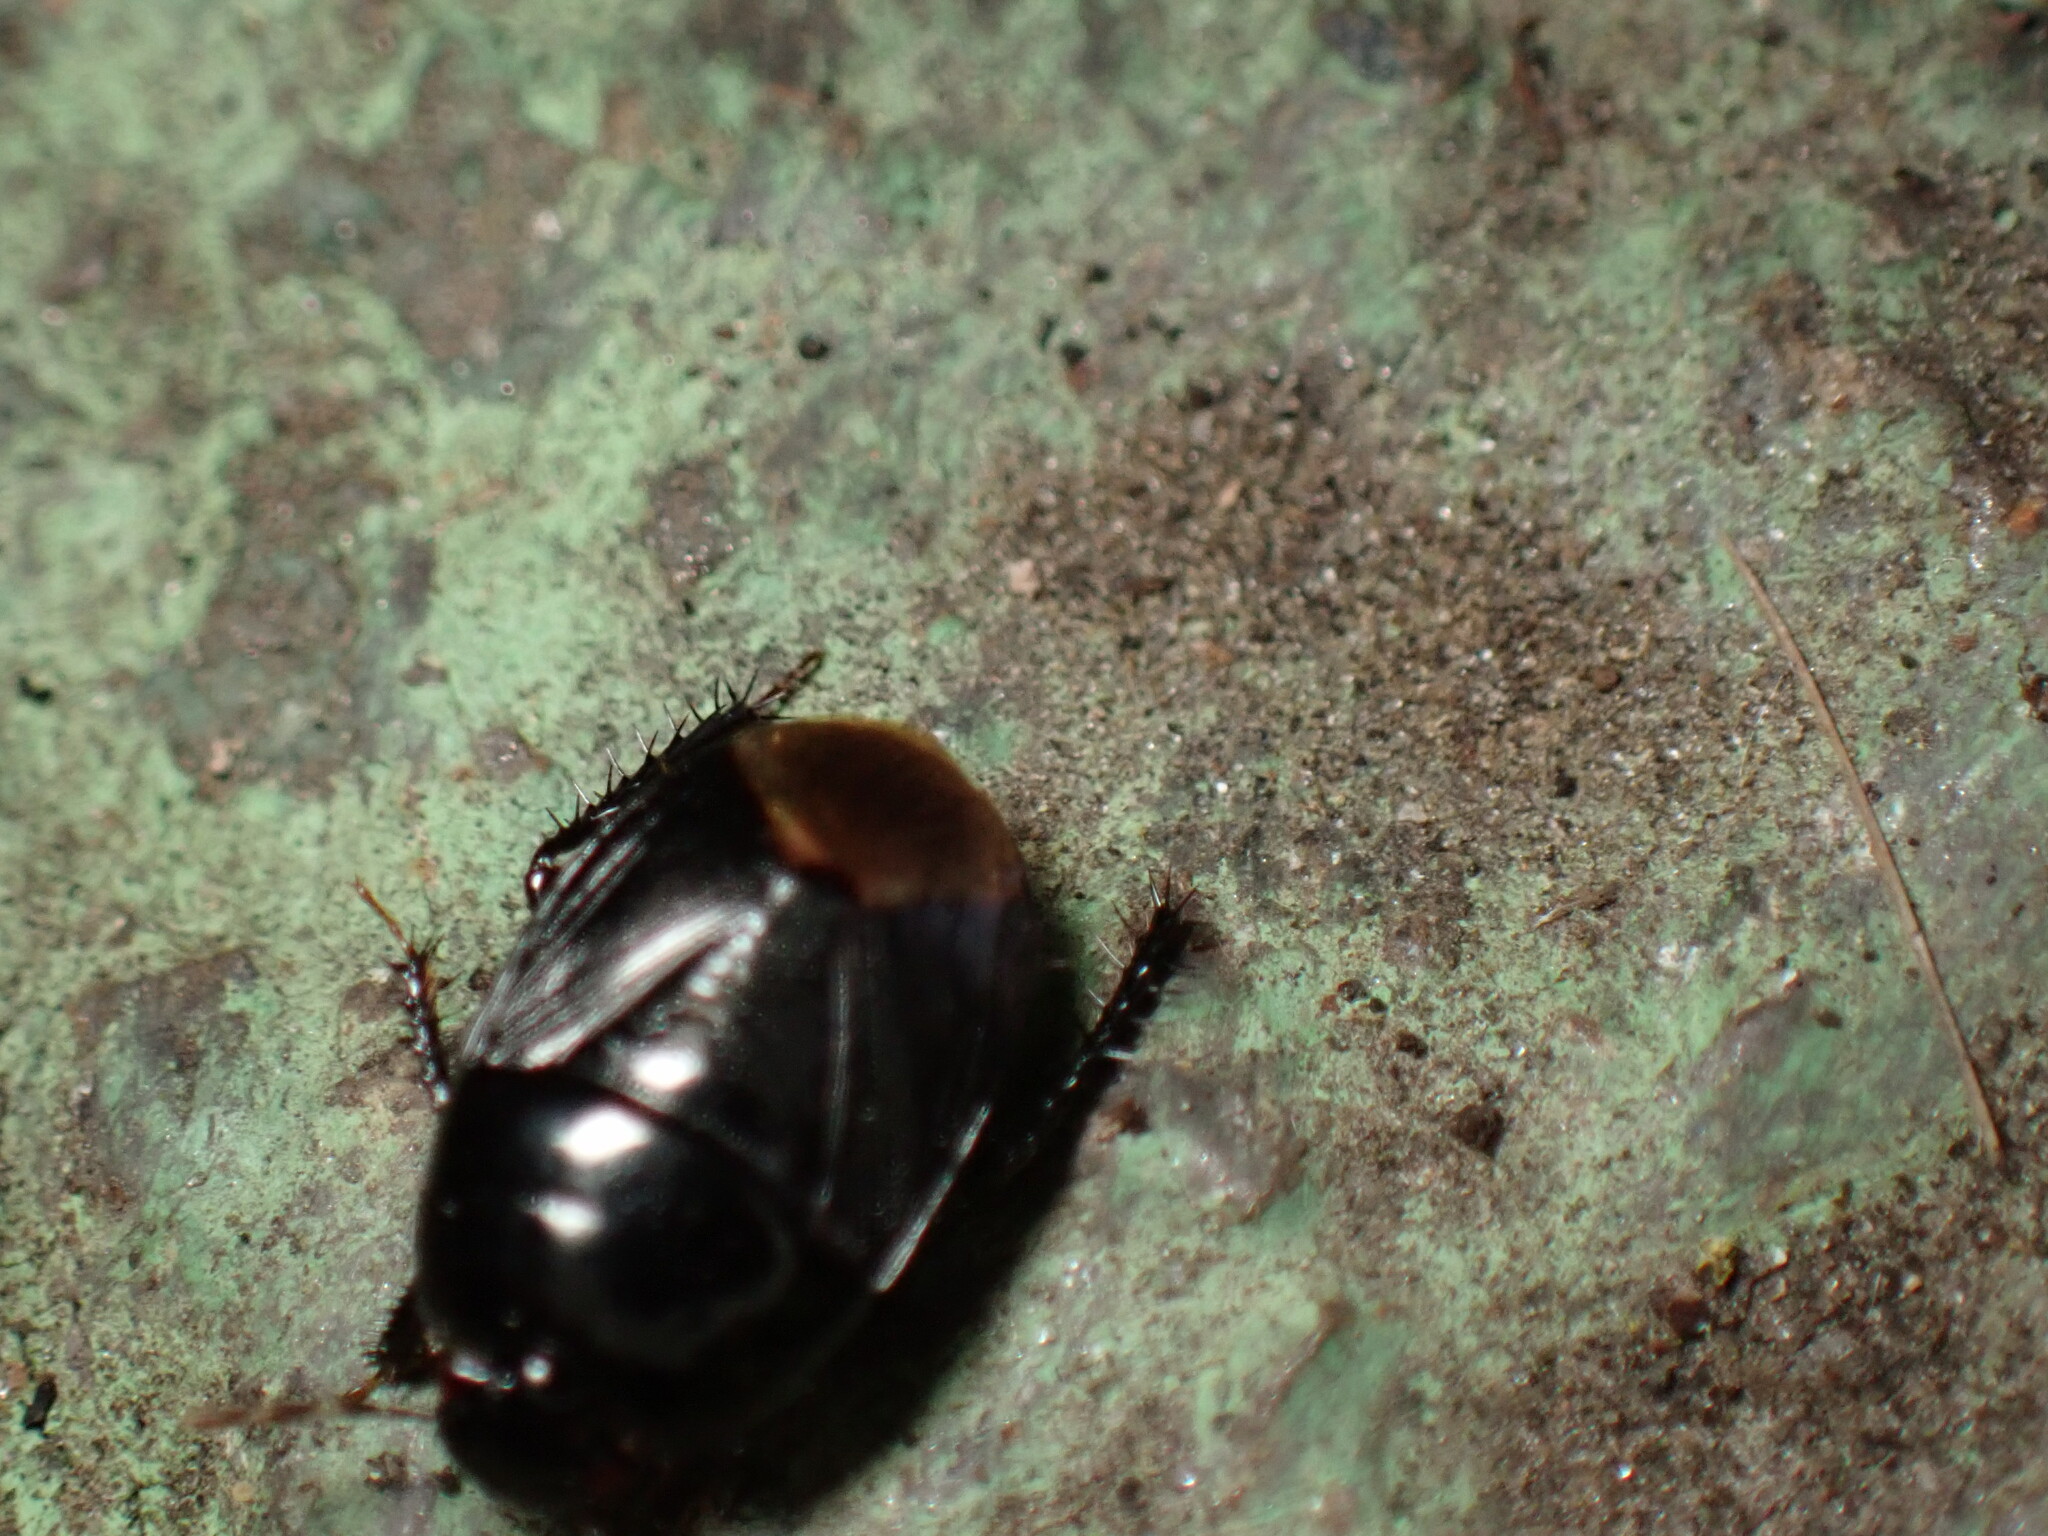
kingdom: Animalia
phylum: Arthropoda
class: Insecta
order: Hemiptera
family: Cydnidae
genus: Pangaeus
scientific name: Pangaeus bilineatus
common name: Burrower bug
